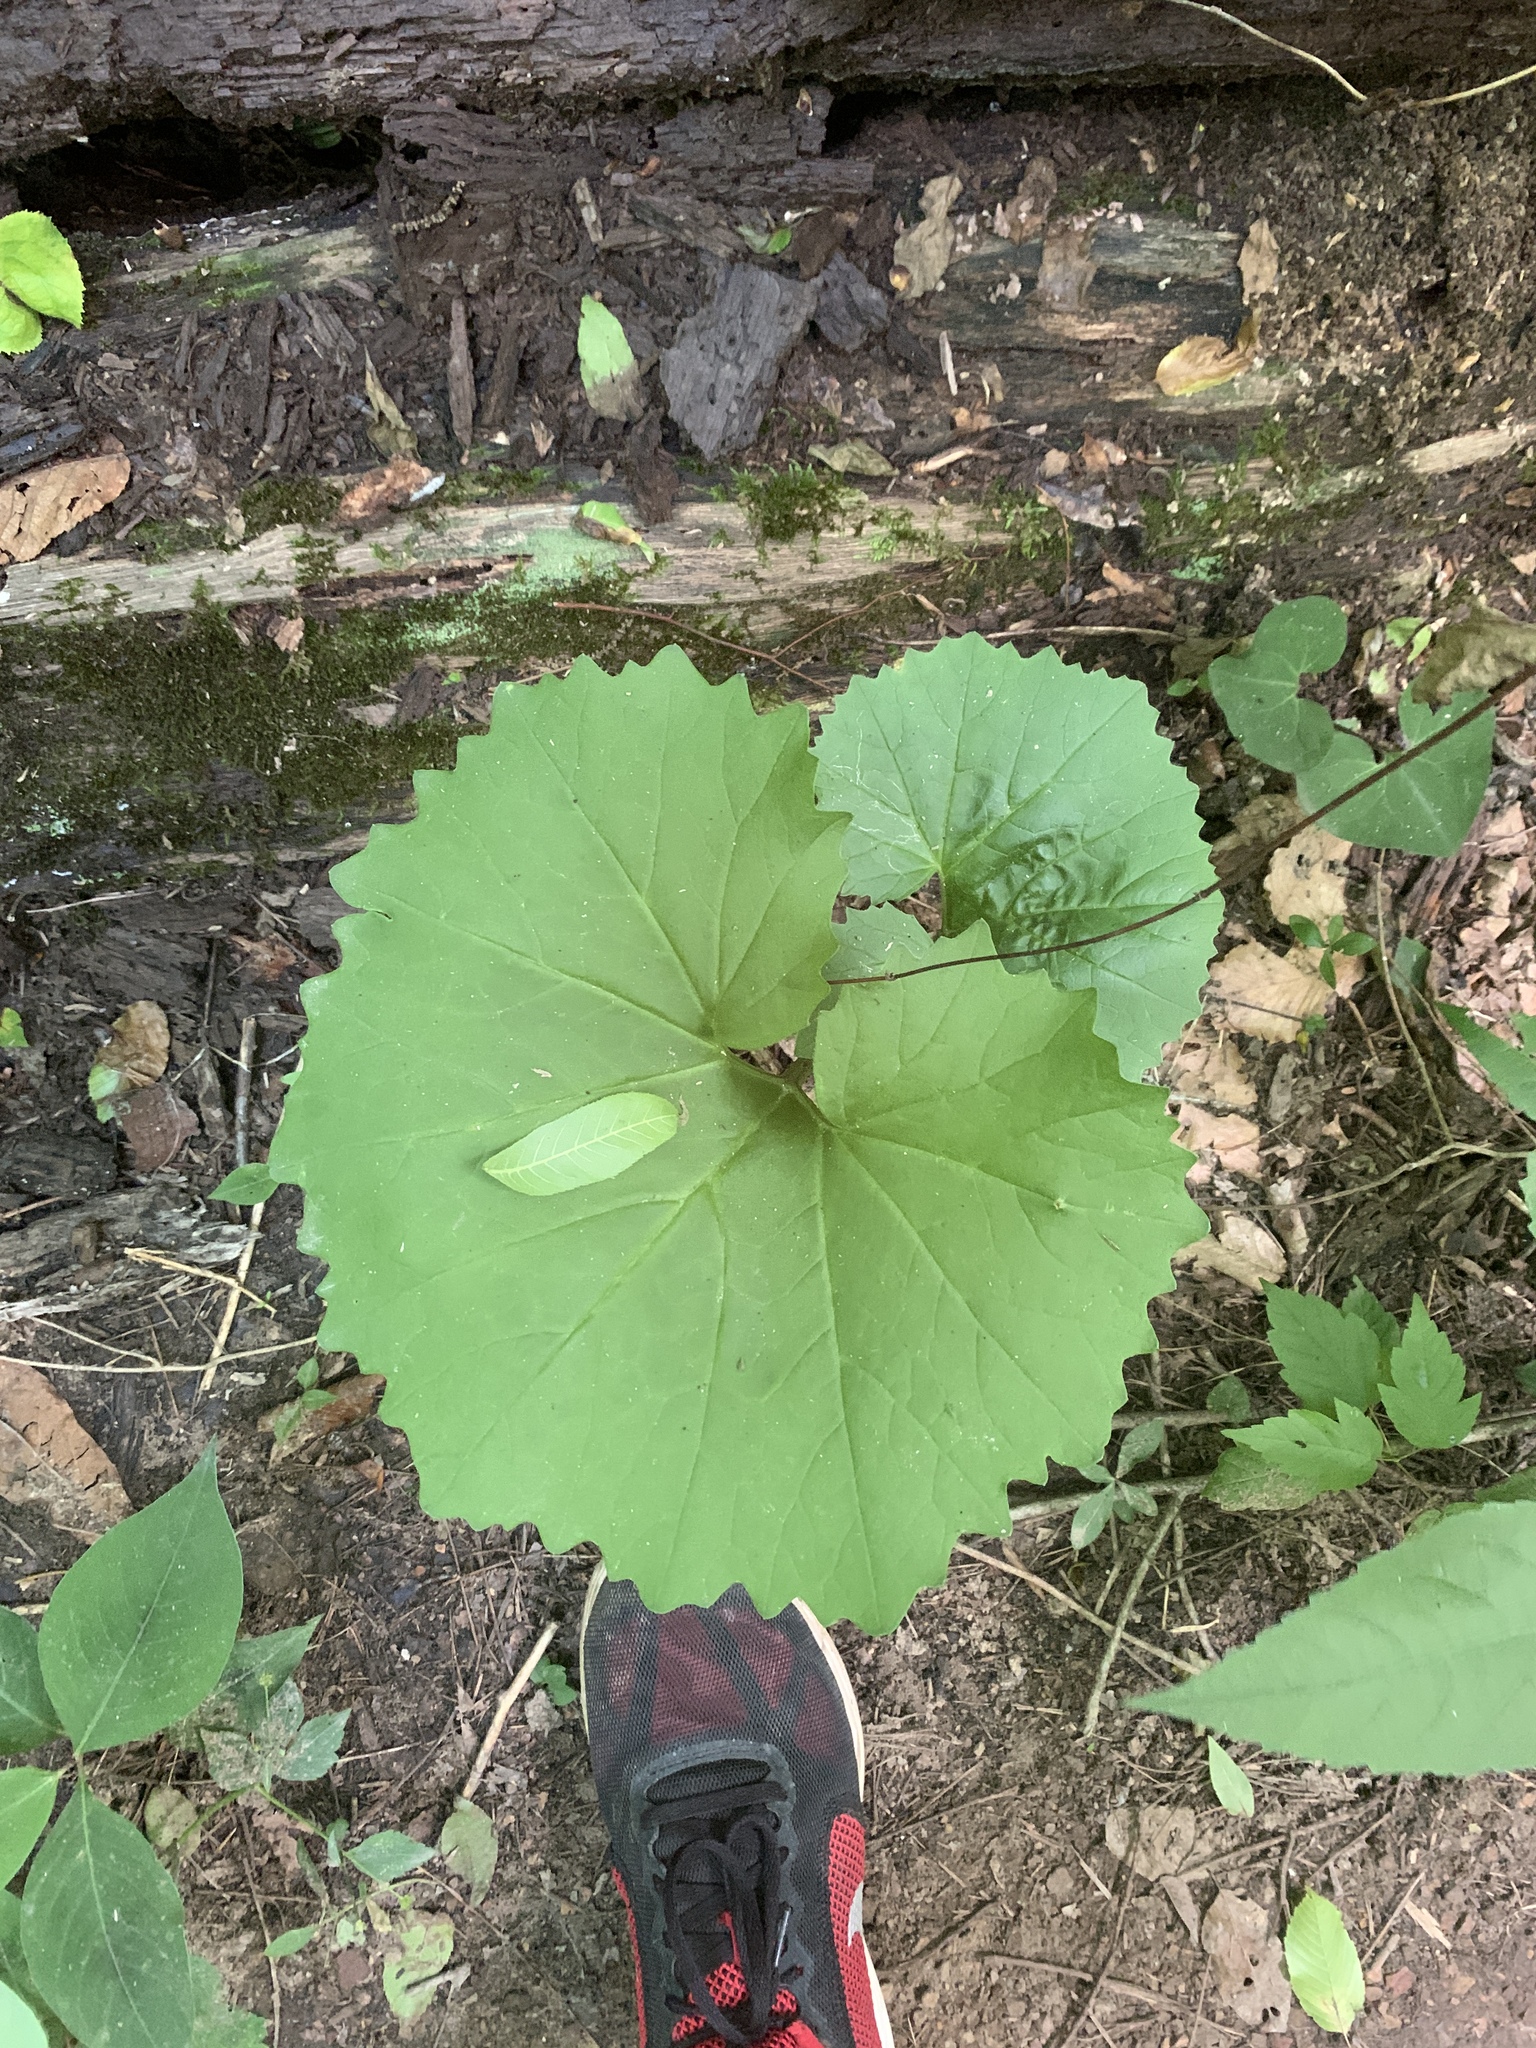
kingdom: Plantae
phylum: Tracheophyta
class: Magnoliopsida
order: Asterales
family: Asteraceae
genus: Arnoglossum
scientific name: Arnoglossum atriplicifolium
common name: Pale indian-plantain
